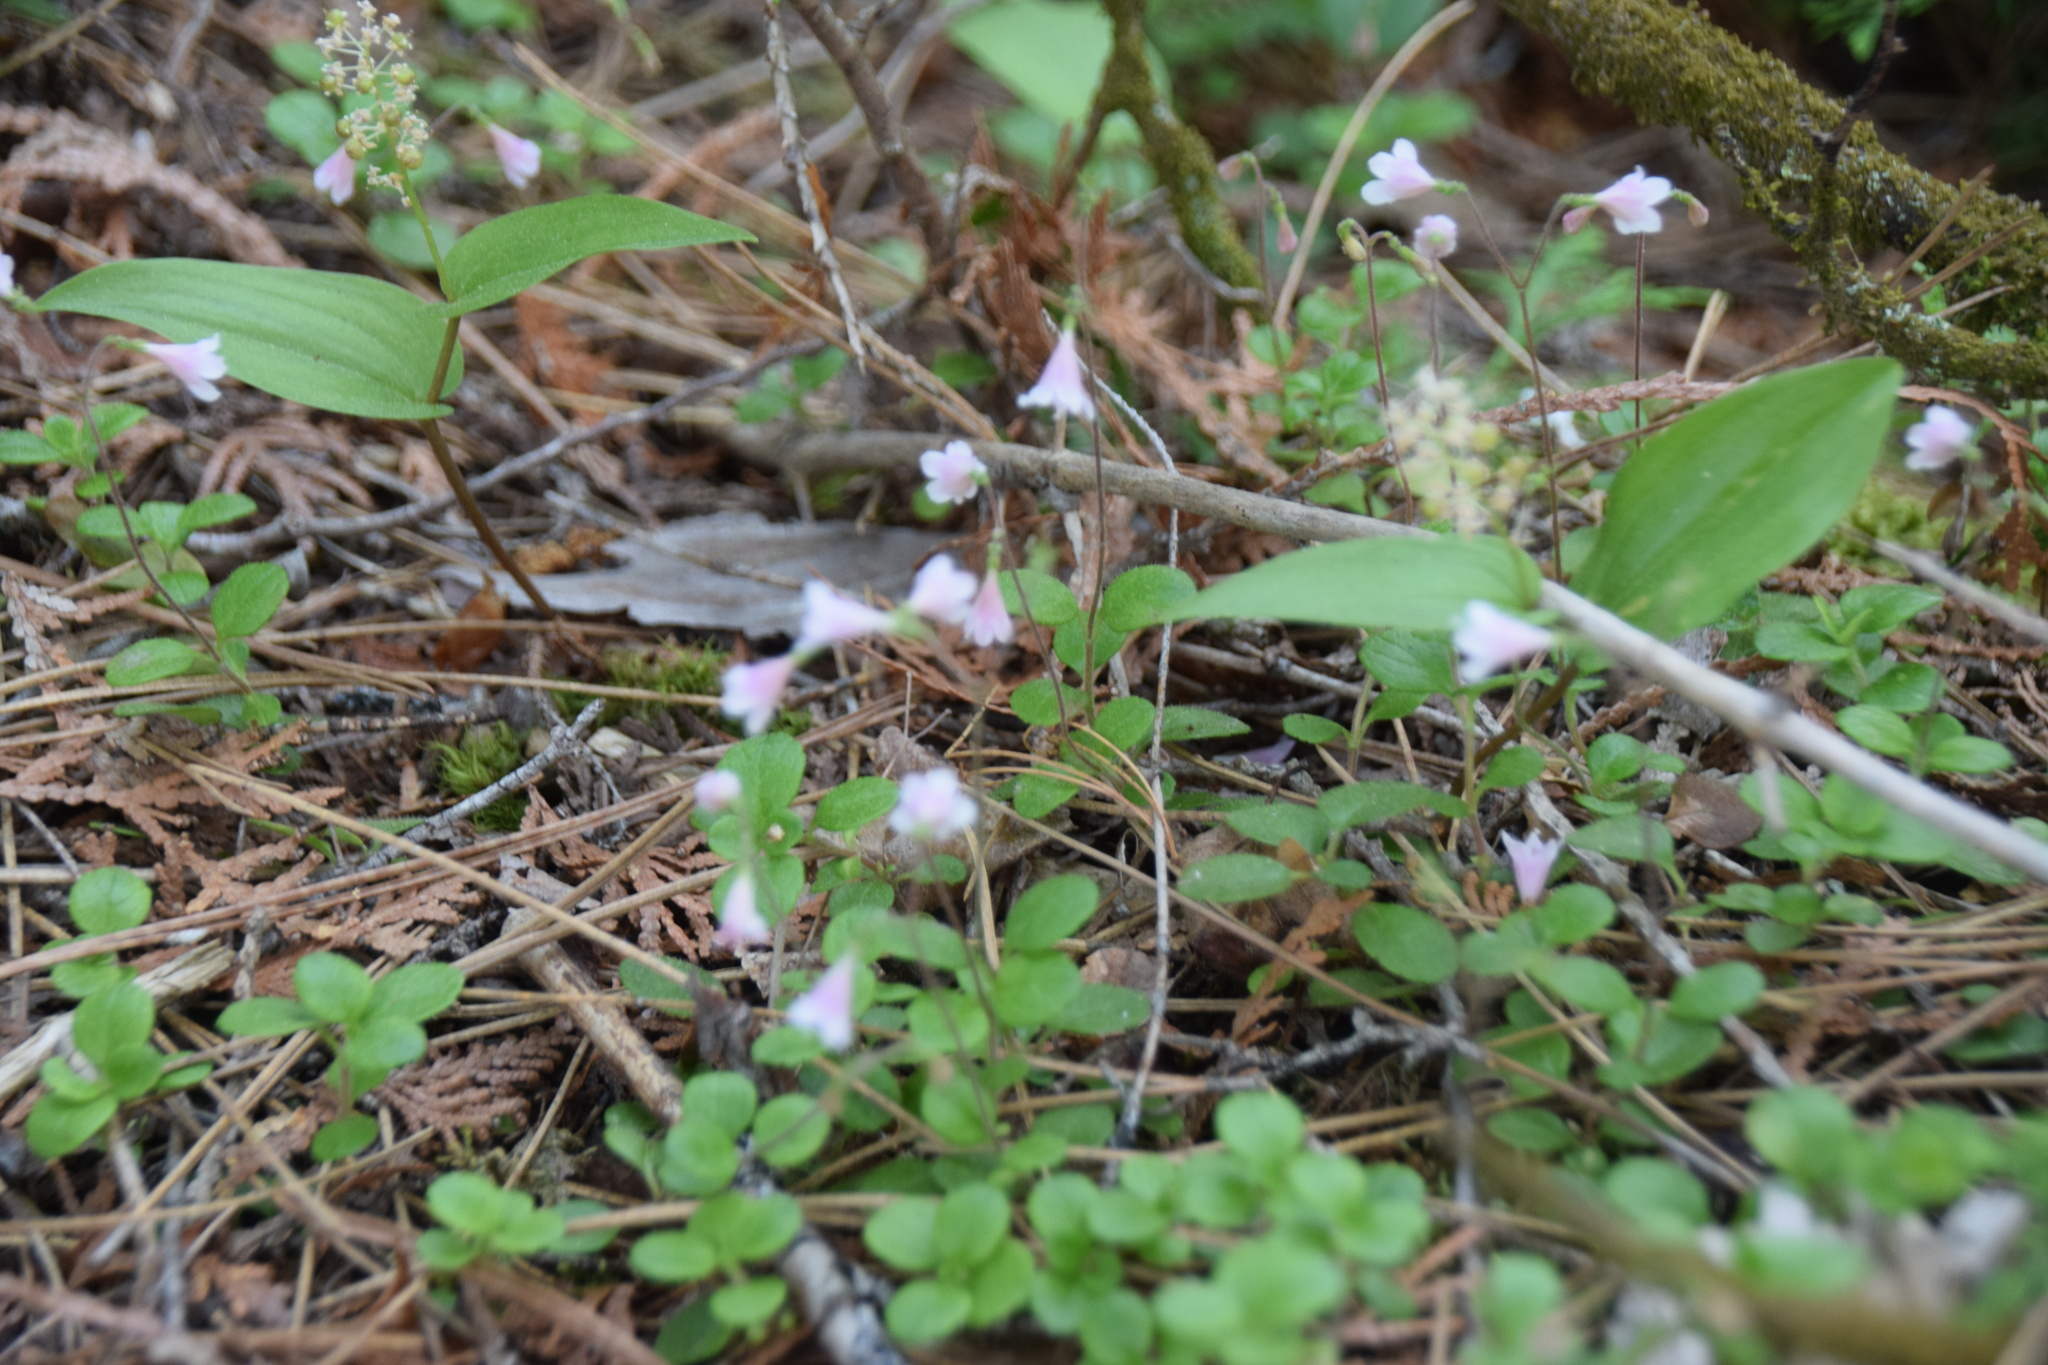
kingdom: Plantae
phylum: Tracheophyta
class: Magnoliopsida
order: Dipsacales
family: Caprifoliaceae
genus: Linnaea
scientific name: Linnaea borealis
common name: Twinflower
